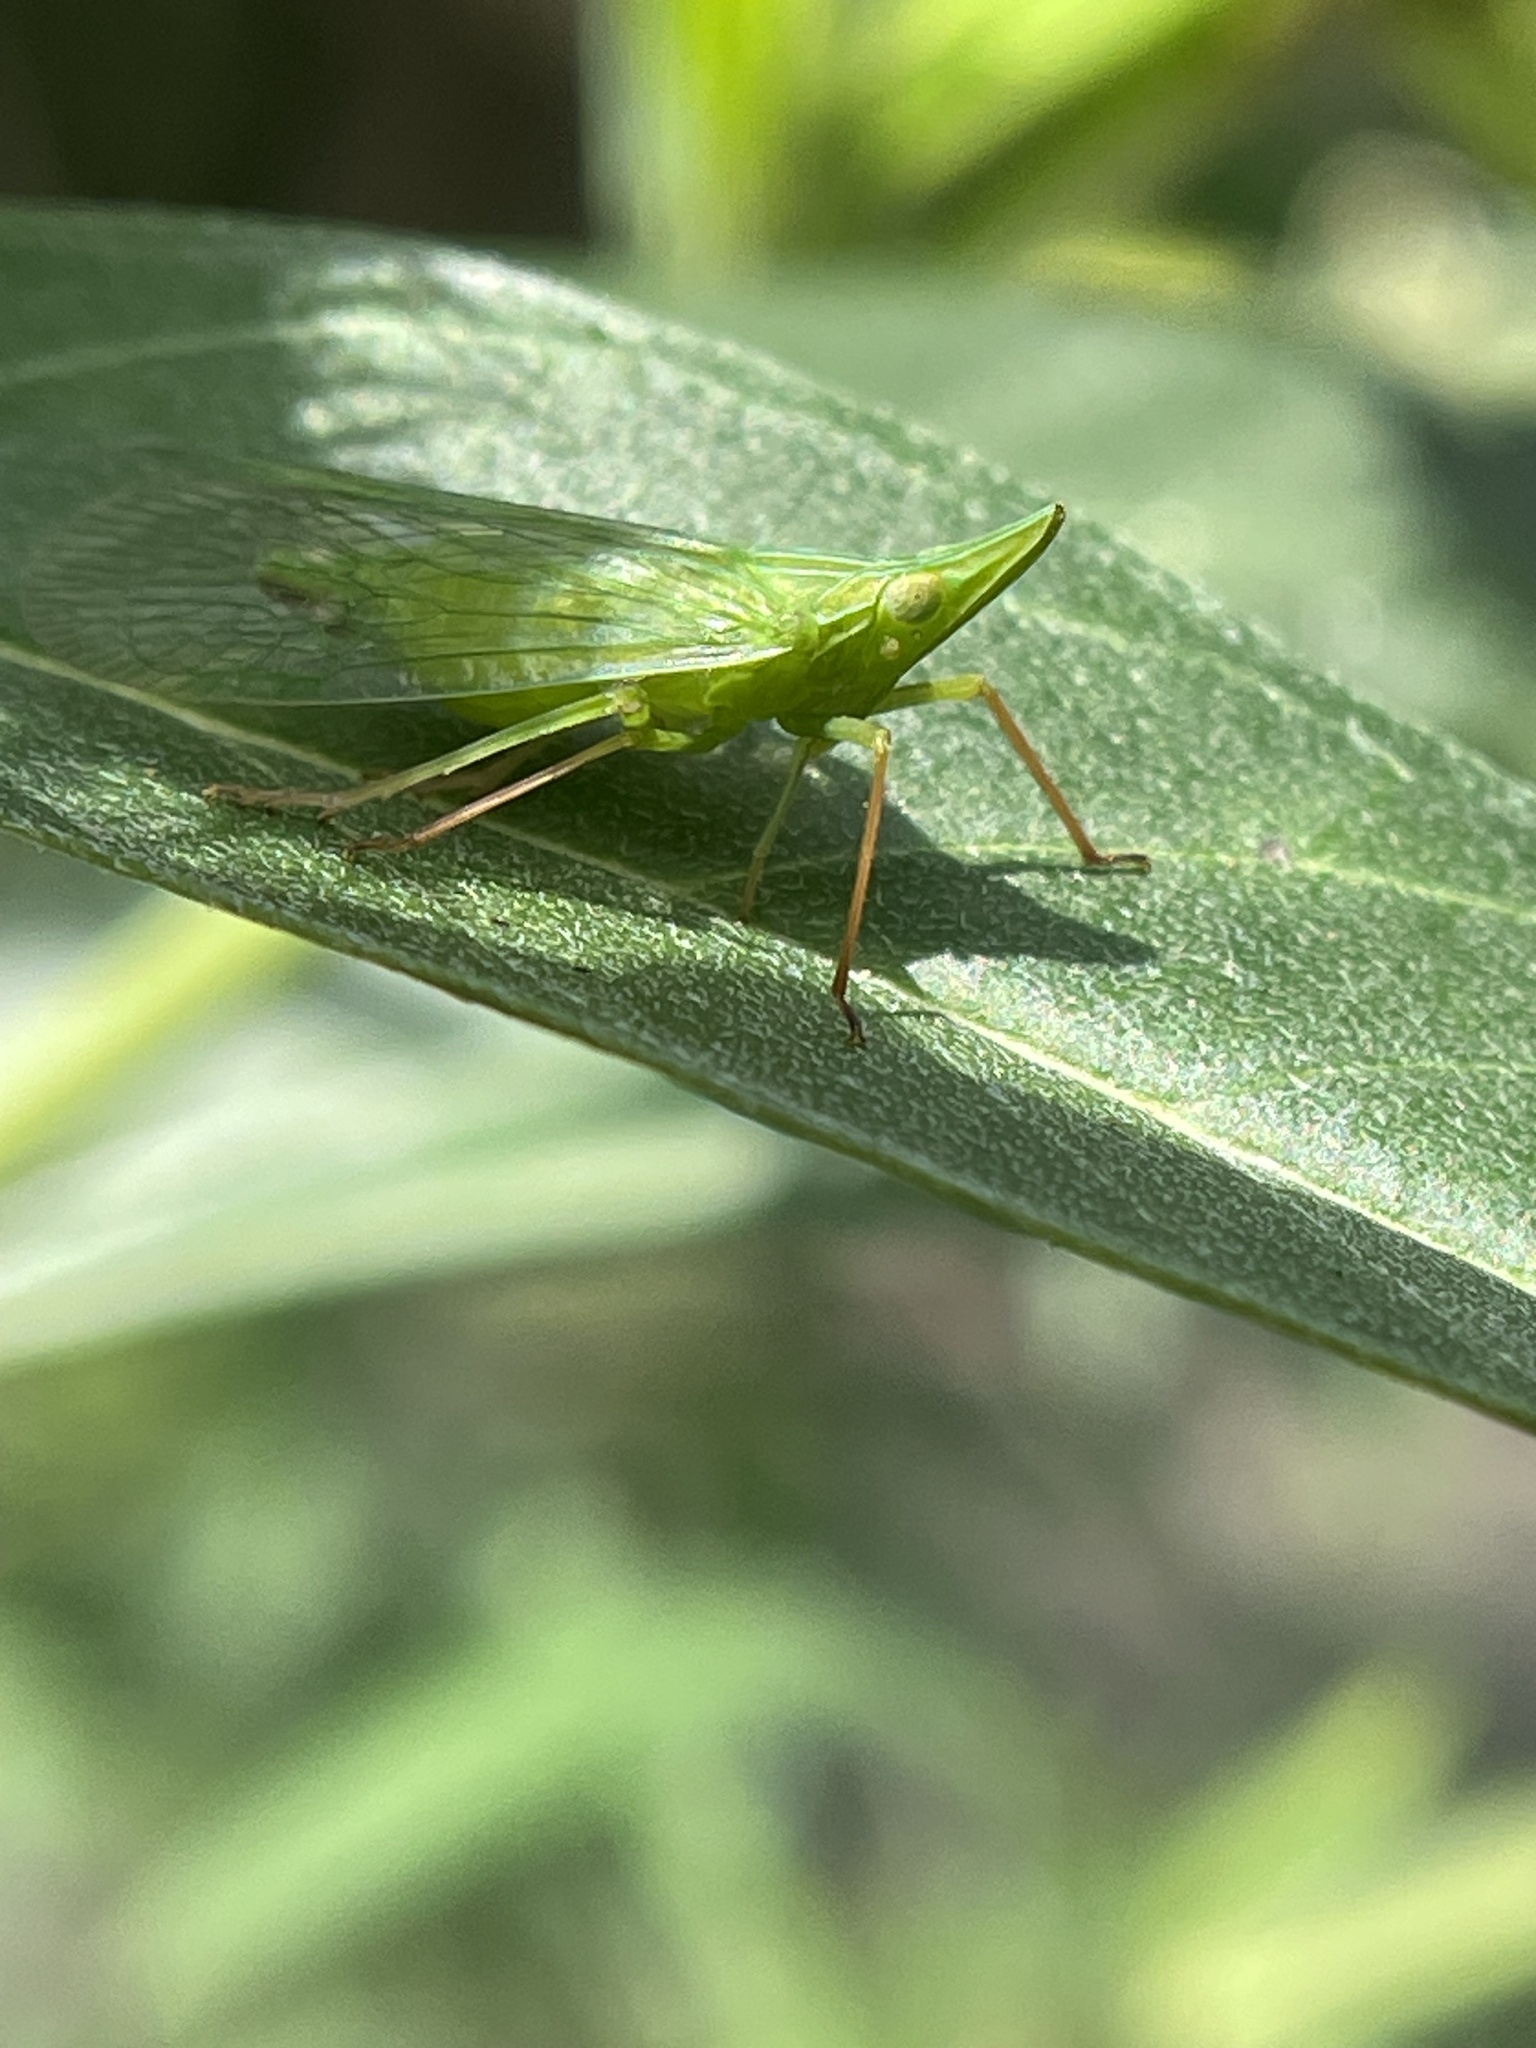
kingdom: Animalia
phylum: Arthropoda
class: Insecta
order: Hemiptera
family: Dictyopharidae
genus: Rhynchomitra
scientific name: Rhynchomitra microrhina
